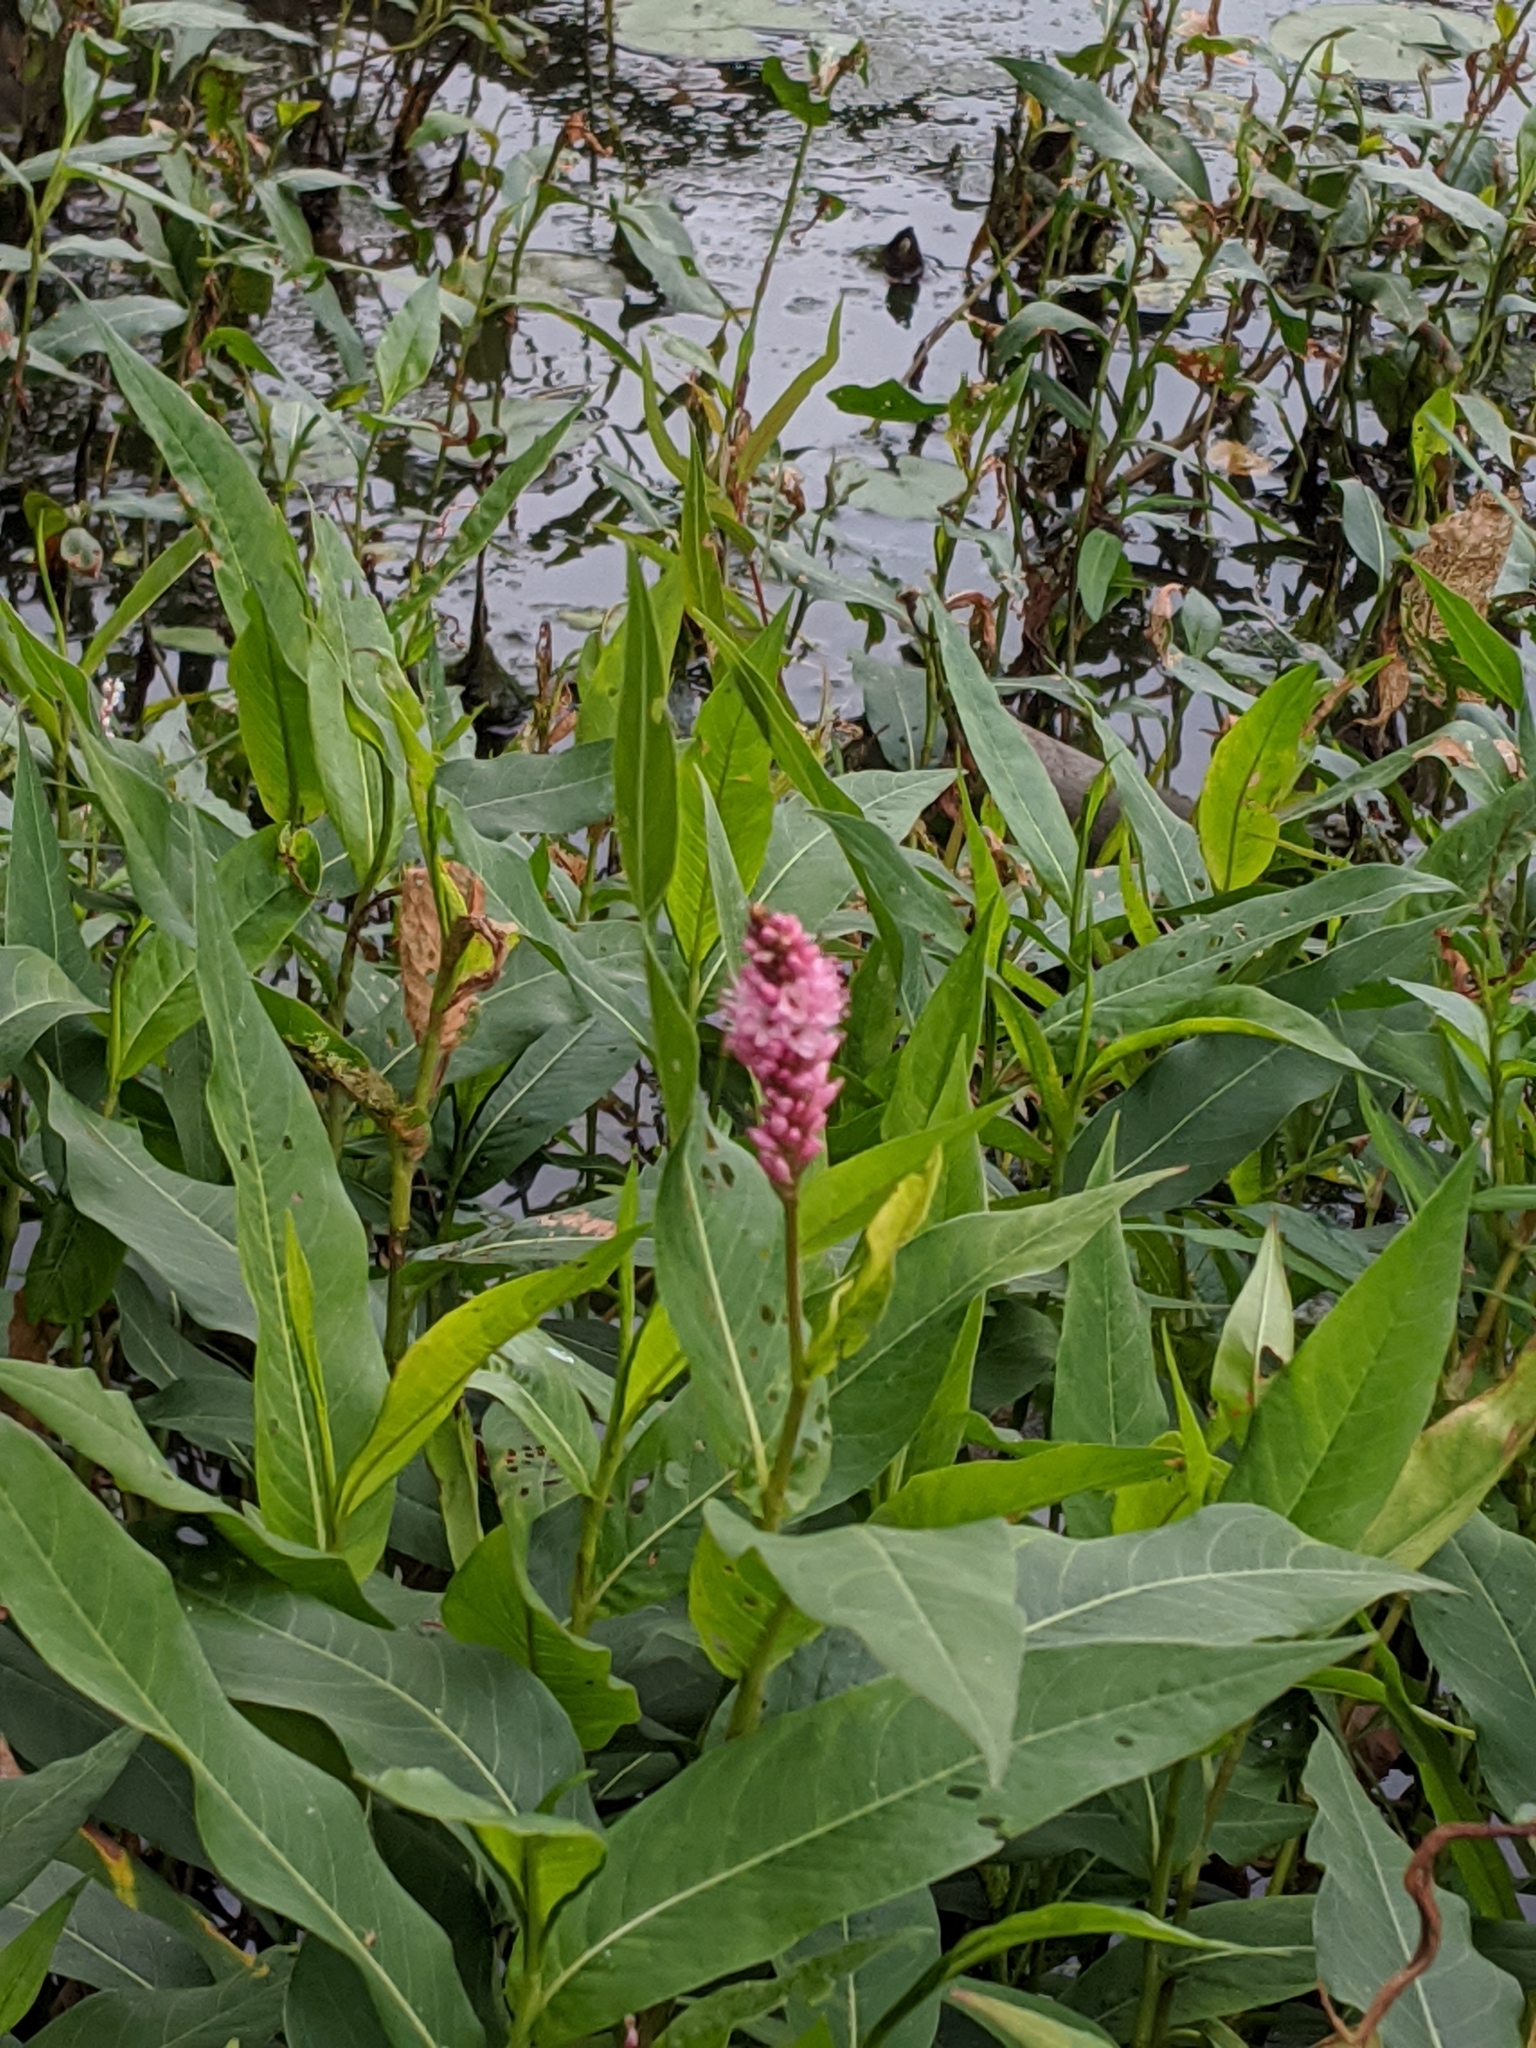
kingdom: Plantae
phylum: Tracheophyta
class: Magnoliopsida
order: Caryophyllales
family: Polygonaceae
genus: Persicaria
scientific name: Persicaria amphibia
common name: Amphibious bistort
